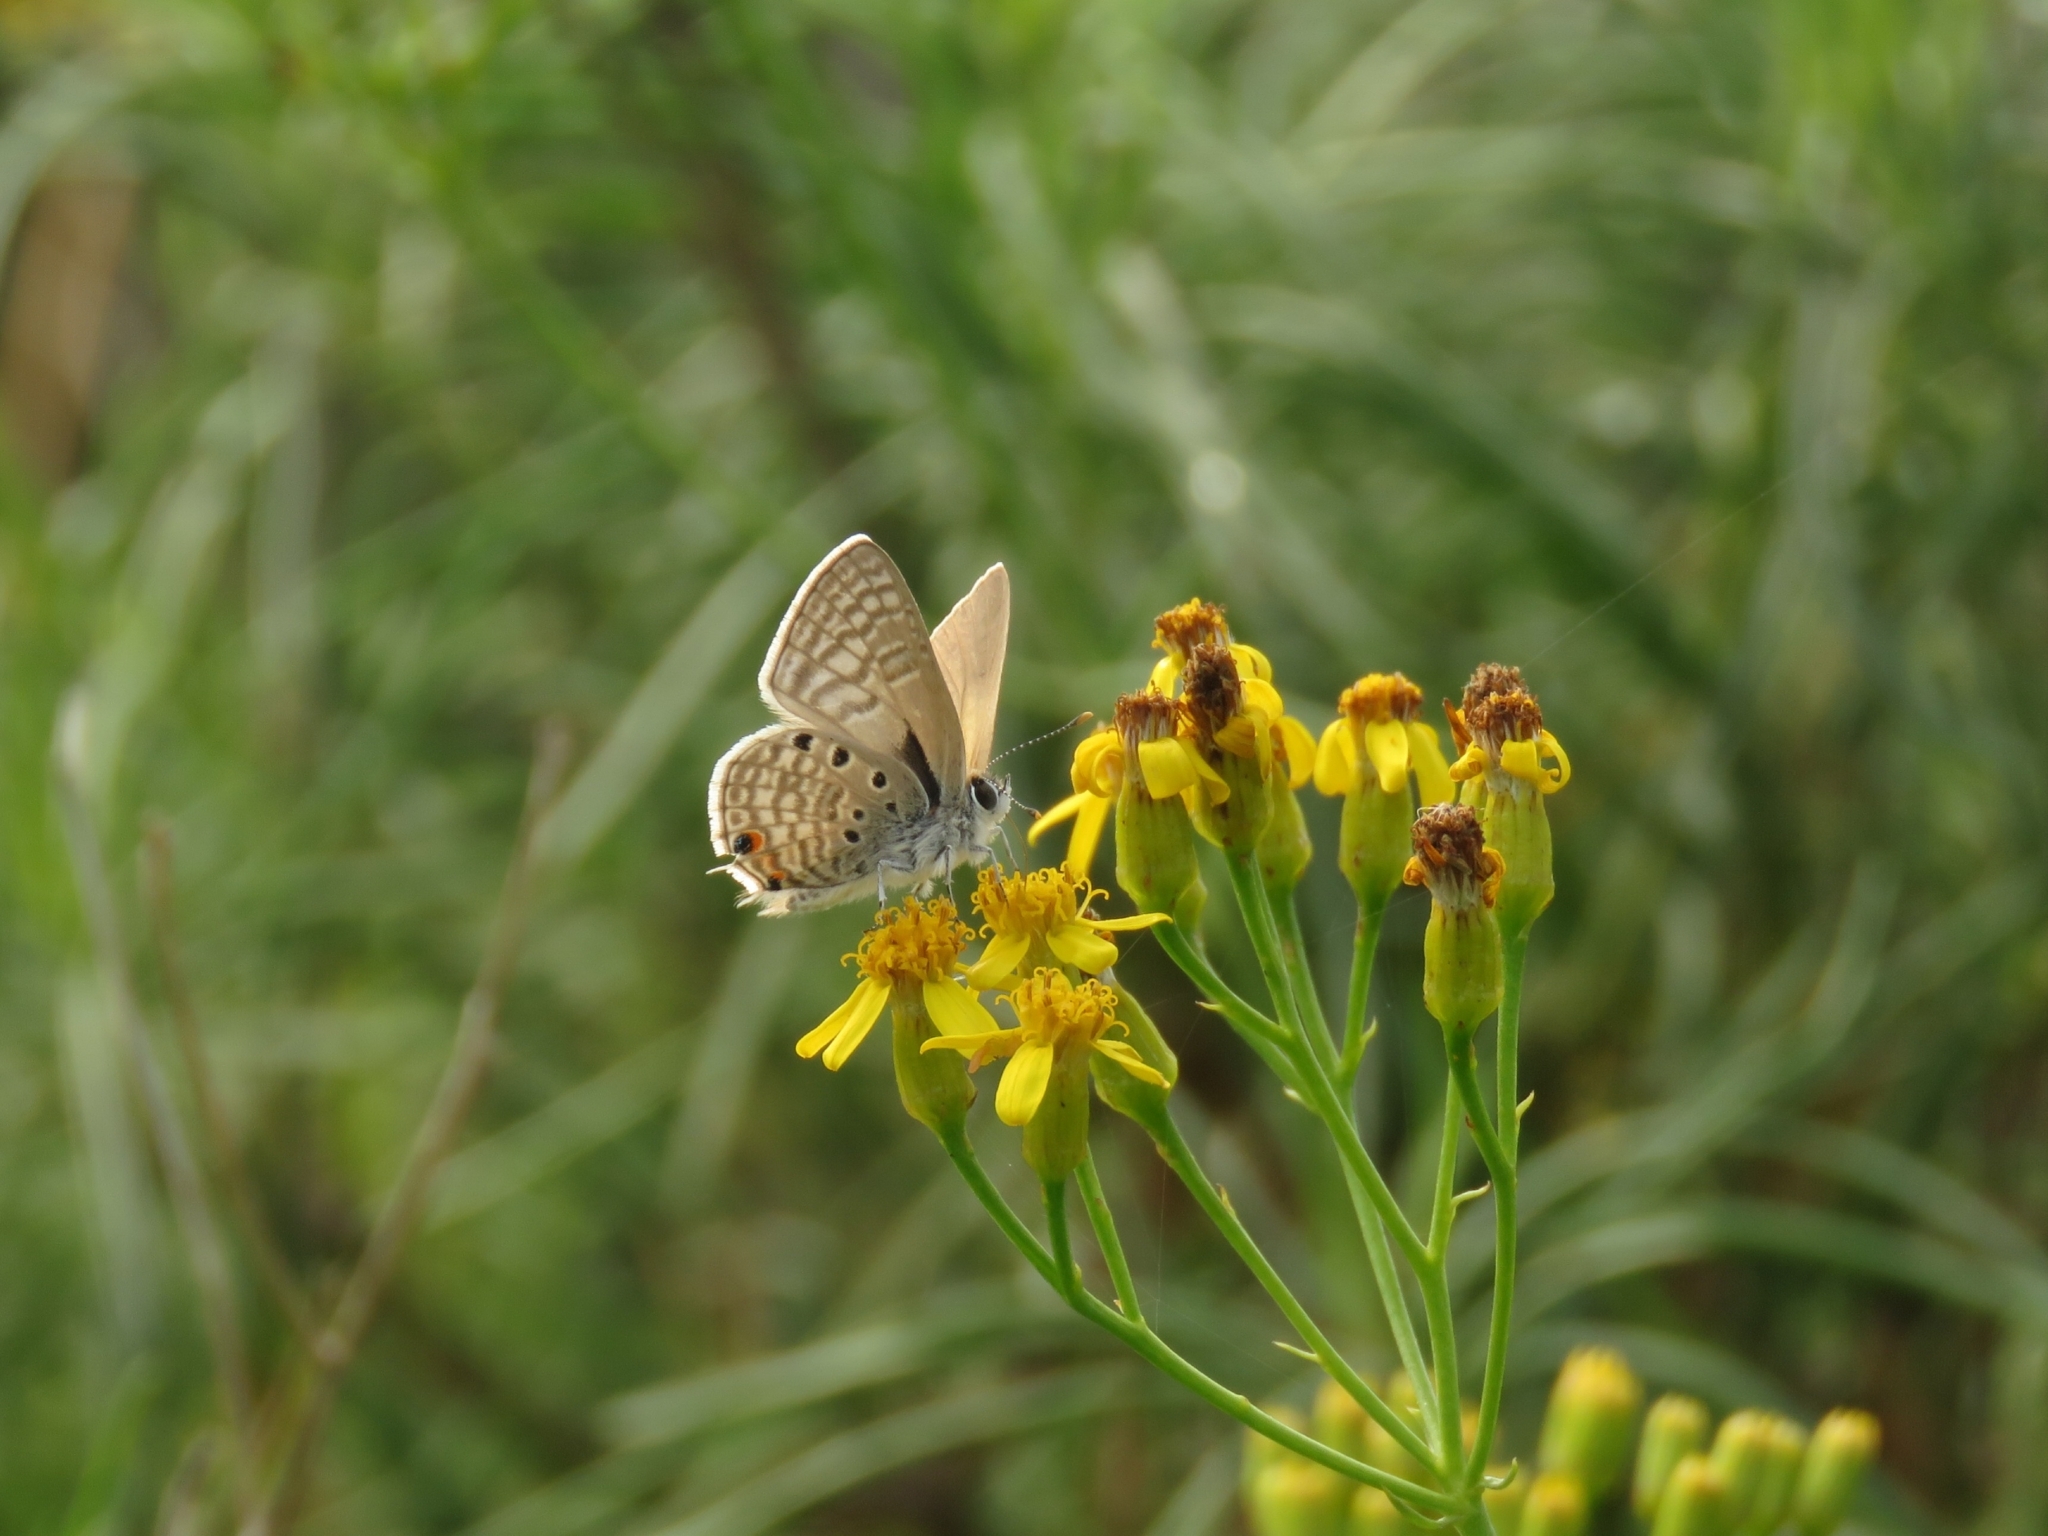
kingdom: Animalia
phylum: Arthropoda
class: Insecta
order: Lepidoptera
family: Lycaenidae
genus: Anthene
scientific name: Anthene amarah
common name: Black-striped hairtail
